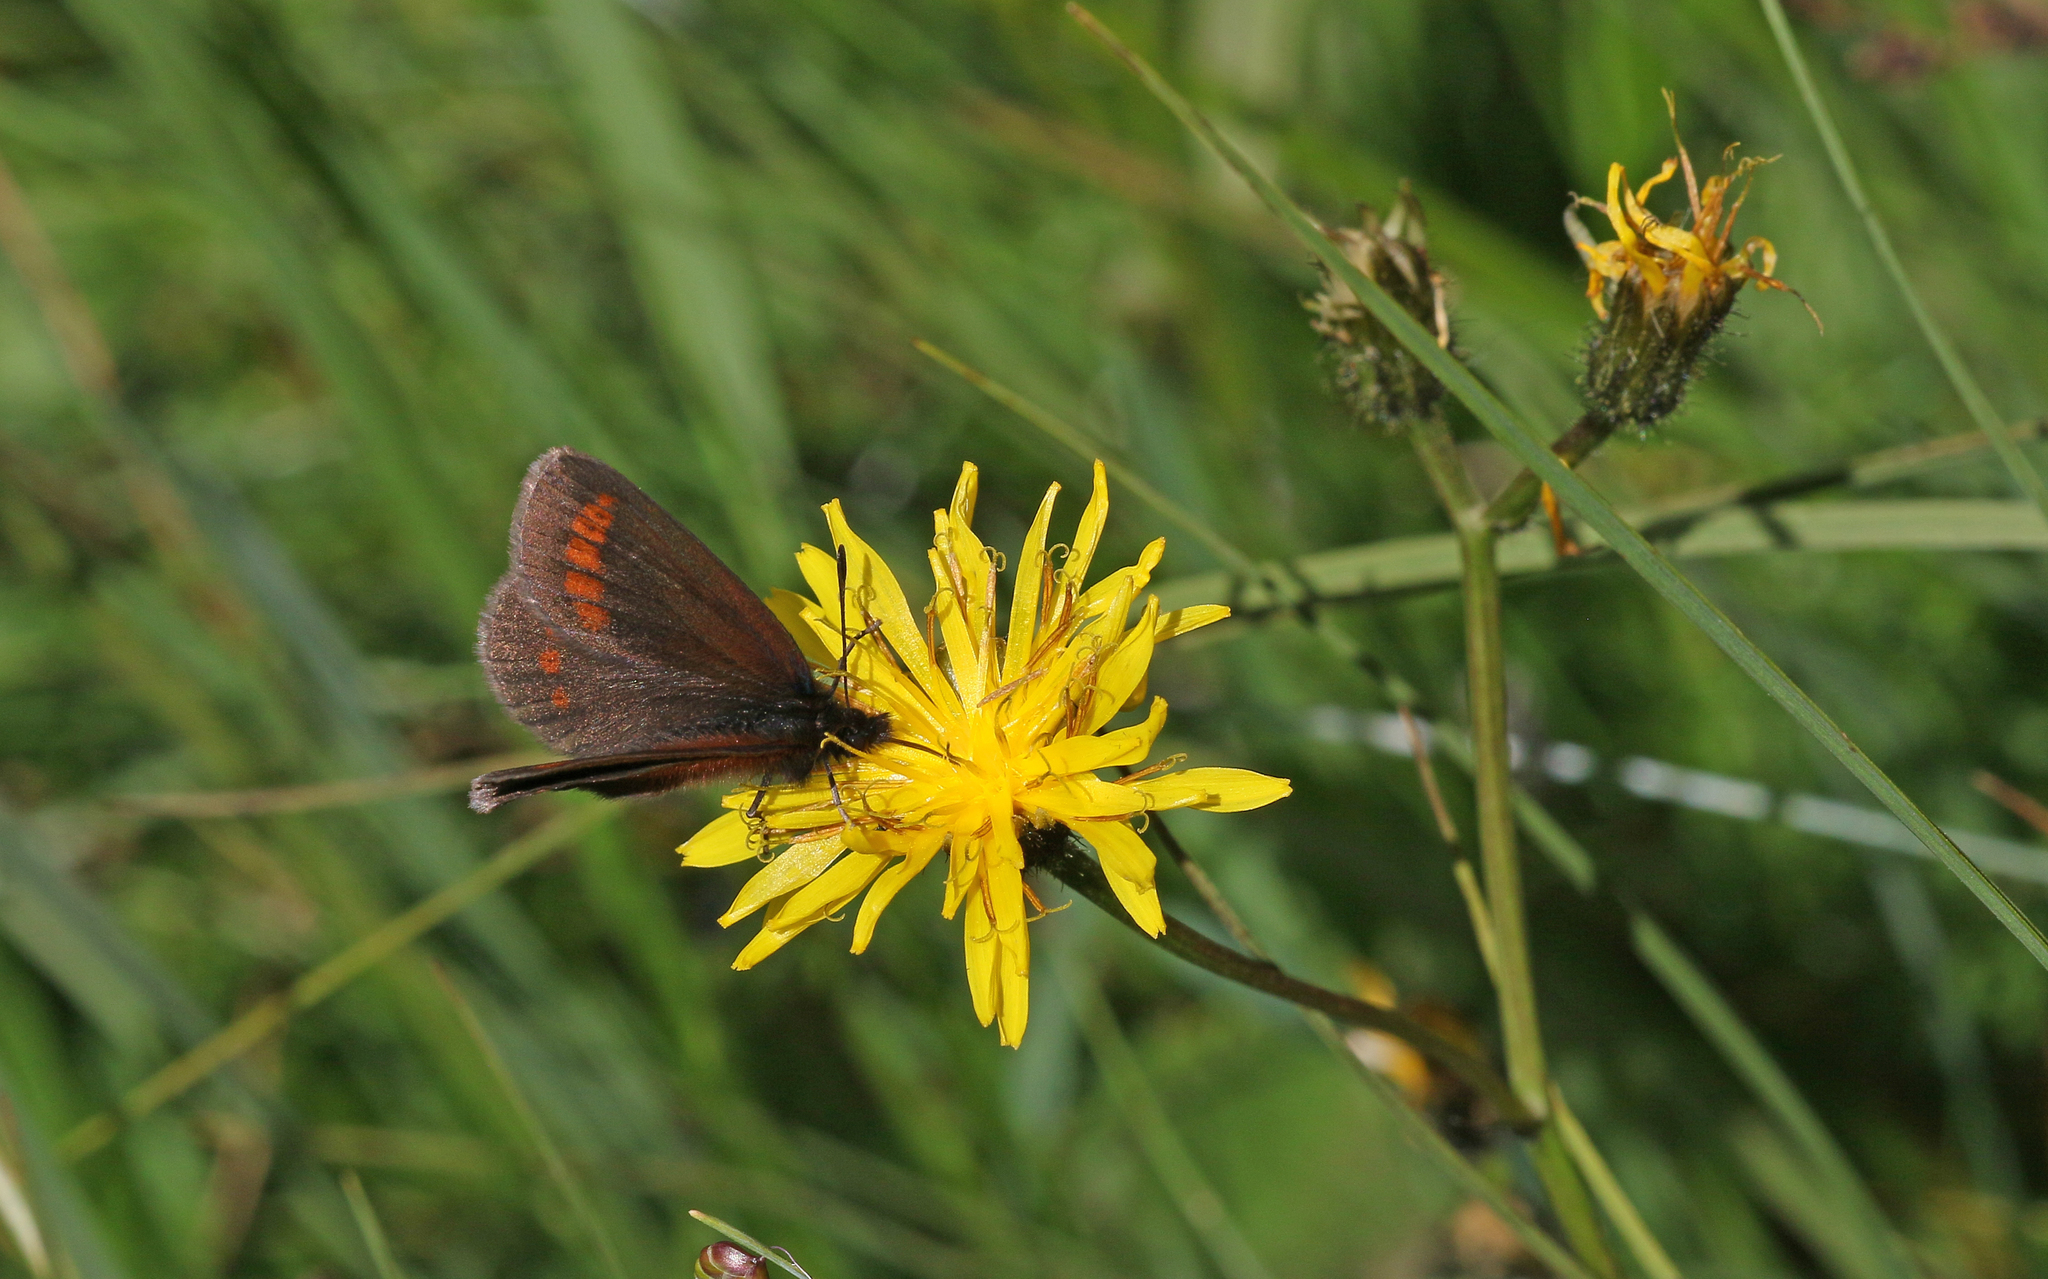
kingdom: Animalia
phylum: Arthropoda
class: Insecta
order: Lepidoptera
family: Nymphalidae
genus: Erebia
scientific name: Erebia
